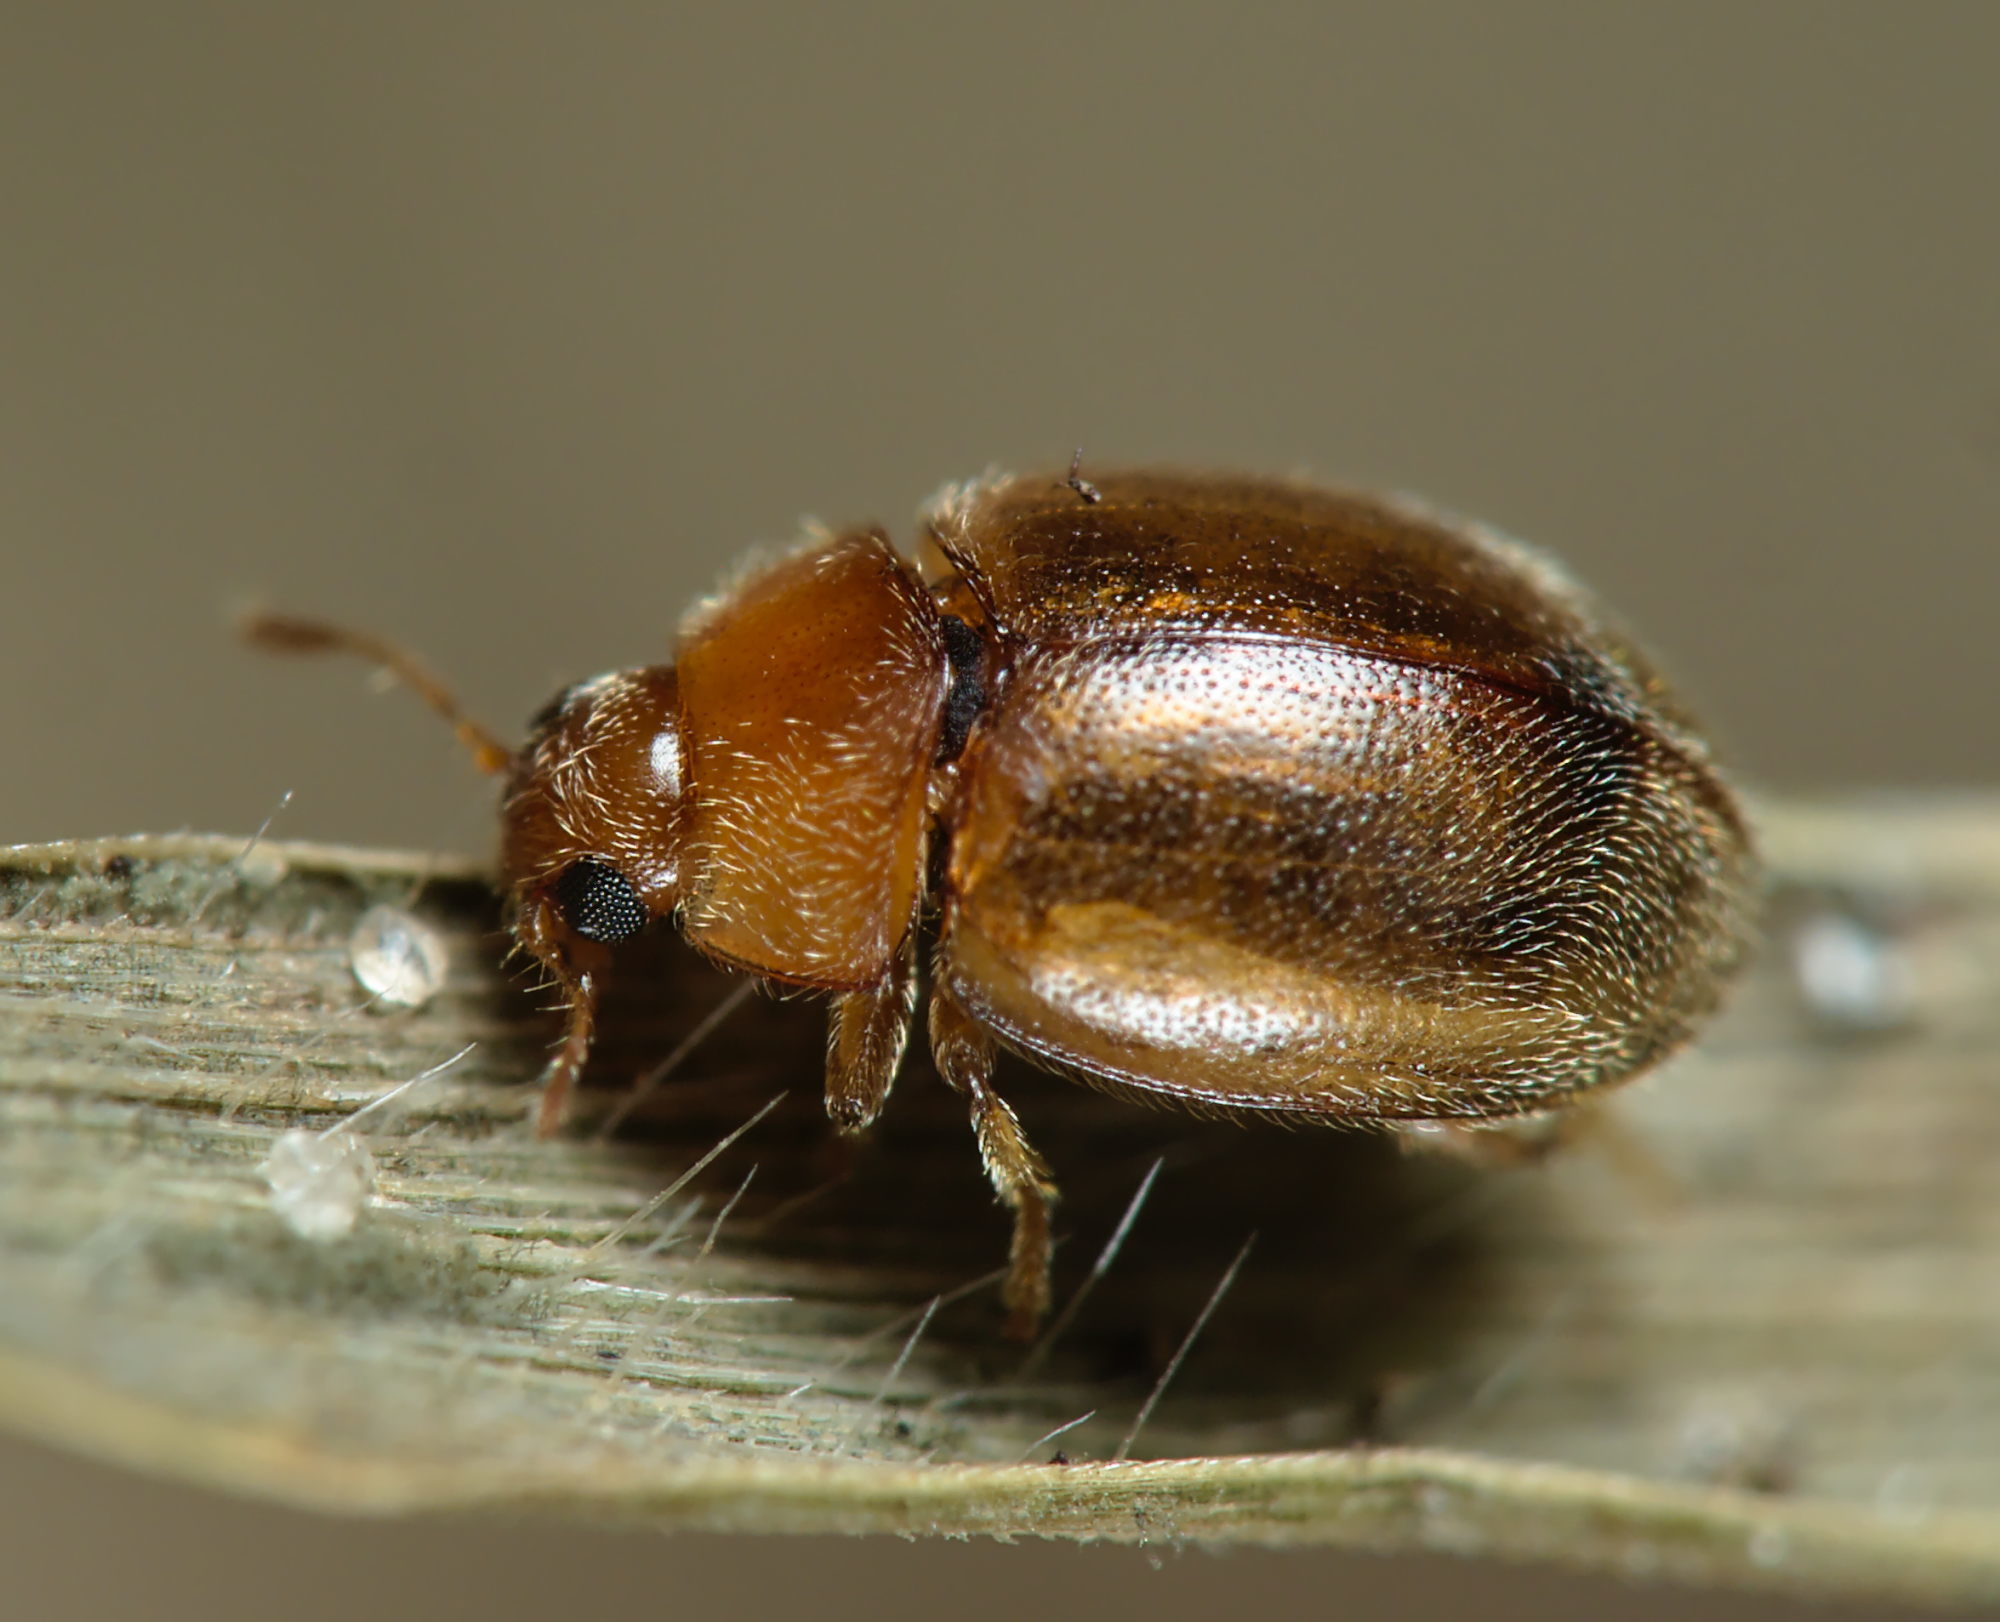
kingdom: Animalia
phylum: Arthropoda
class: Insecta
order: Coleoptera
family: Coccinellidae
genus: Rhyzobius
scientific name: Rhyzobius litura
